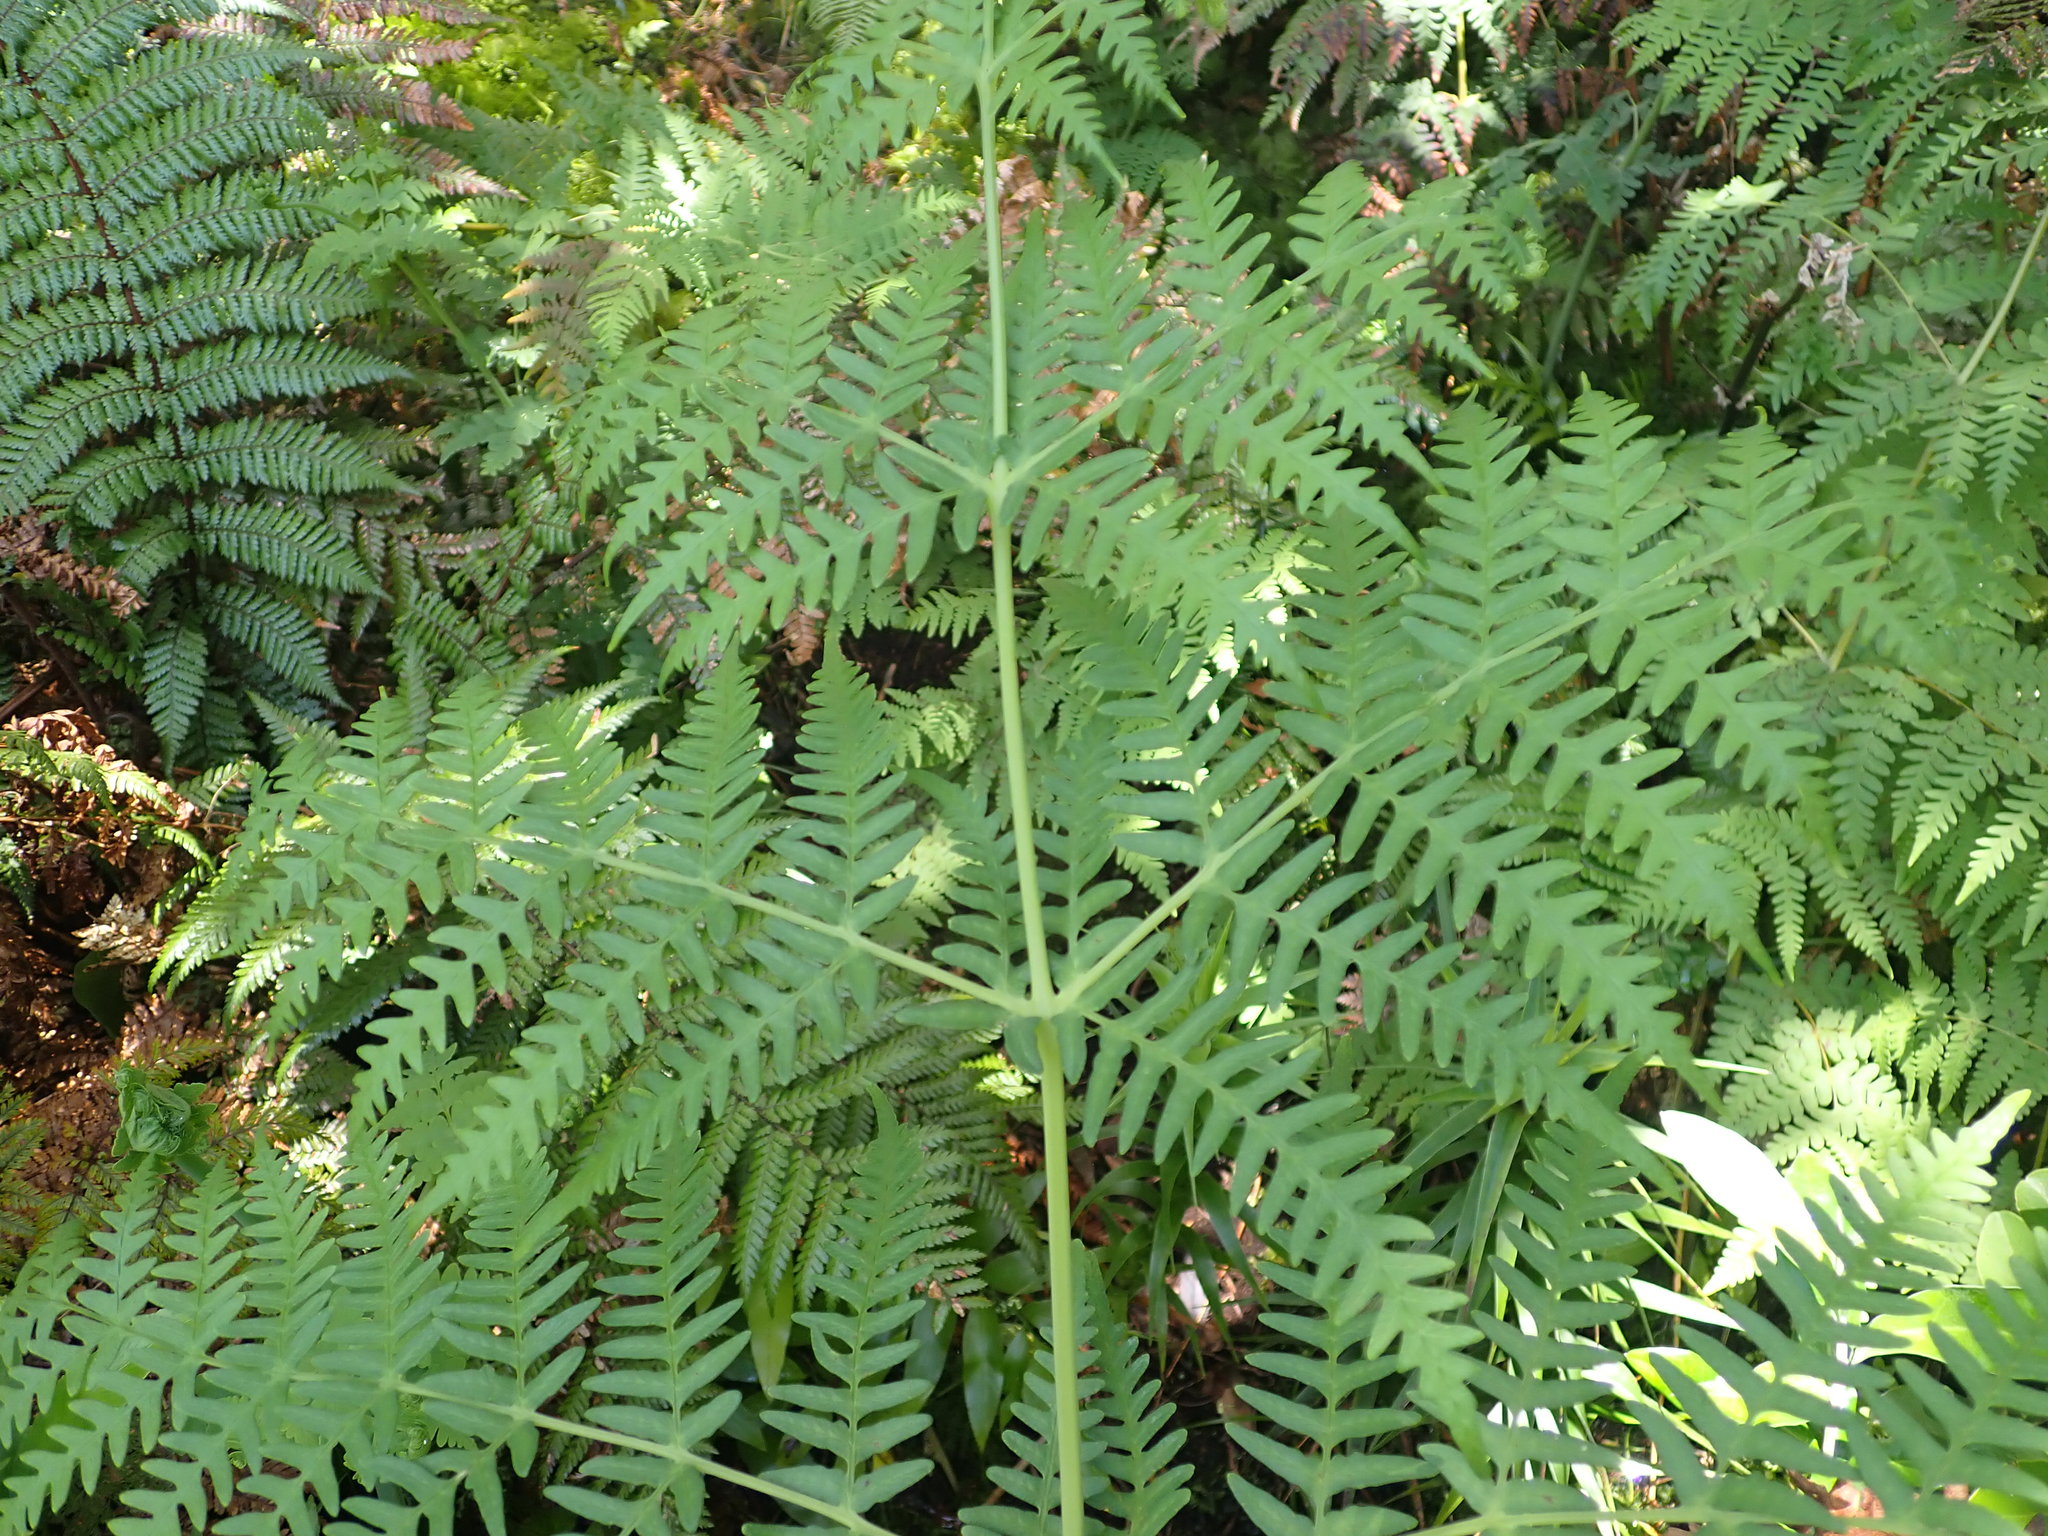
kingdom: Plantae
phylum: Tracheophyta
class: Polypodiopsida
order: Polypodiales
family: Dennstaedtiaceae
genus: Histiopteris
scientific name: Histiopteris incisa
